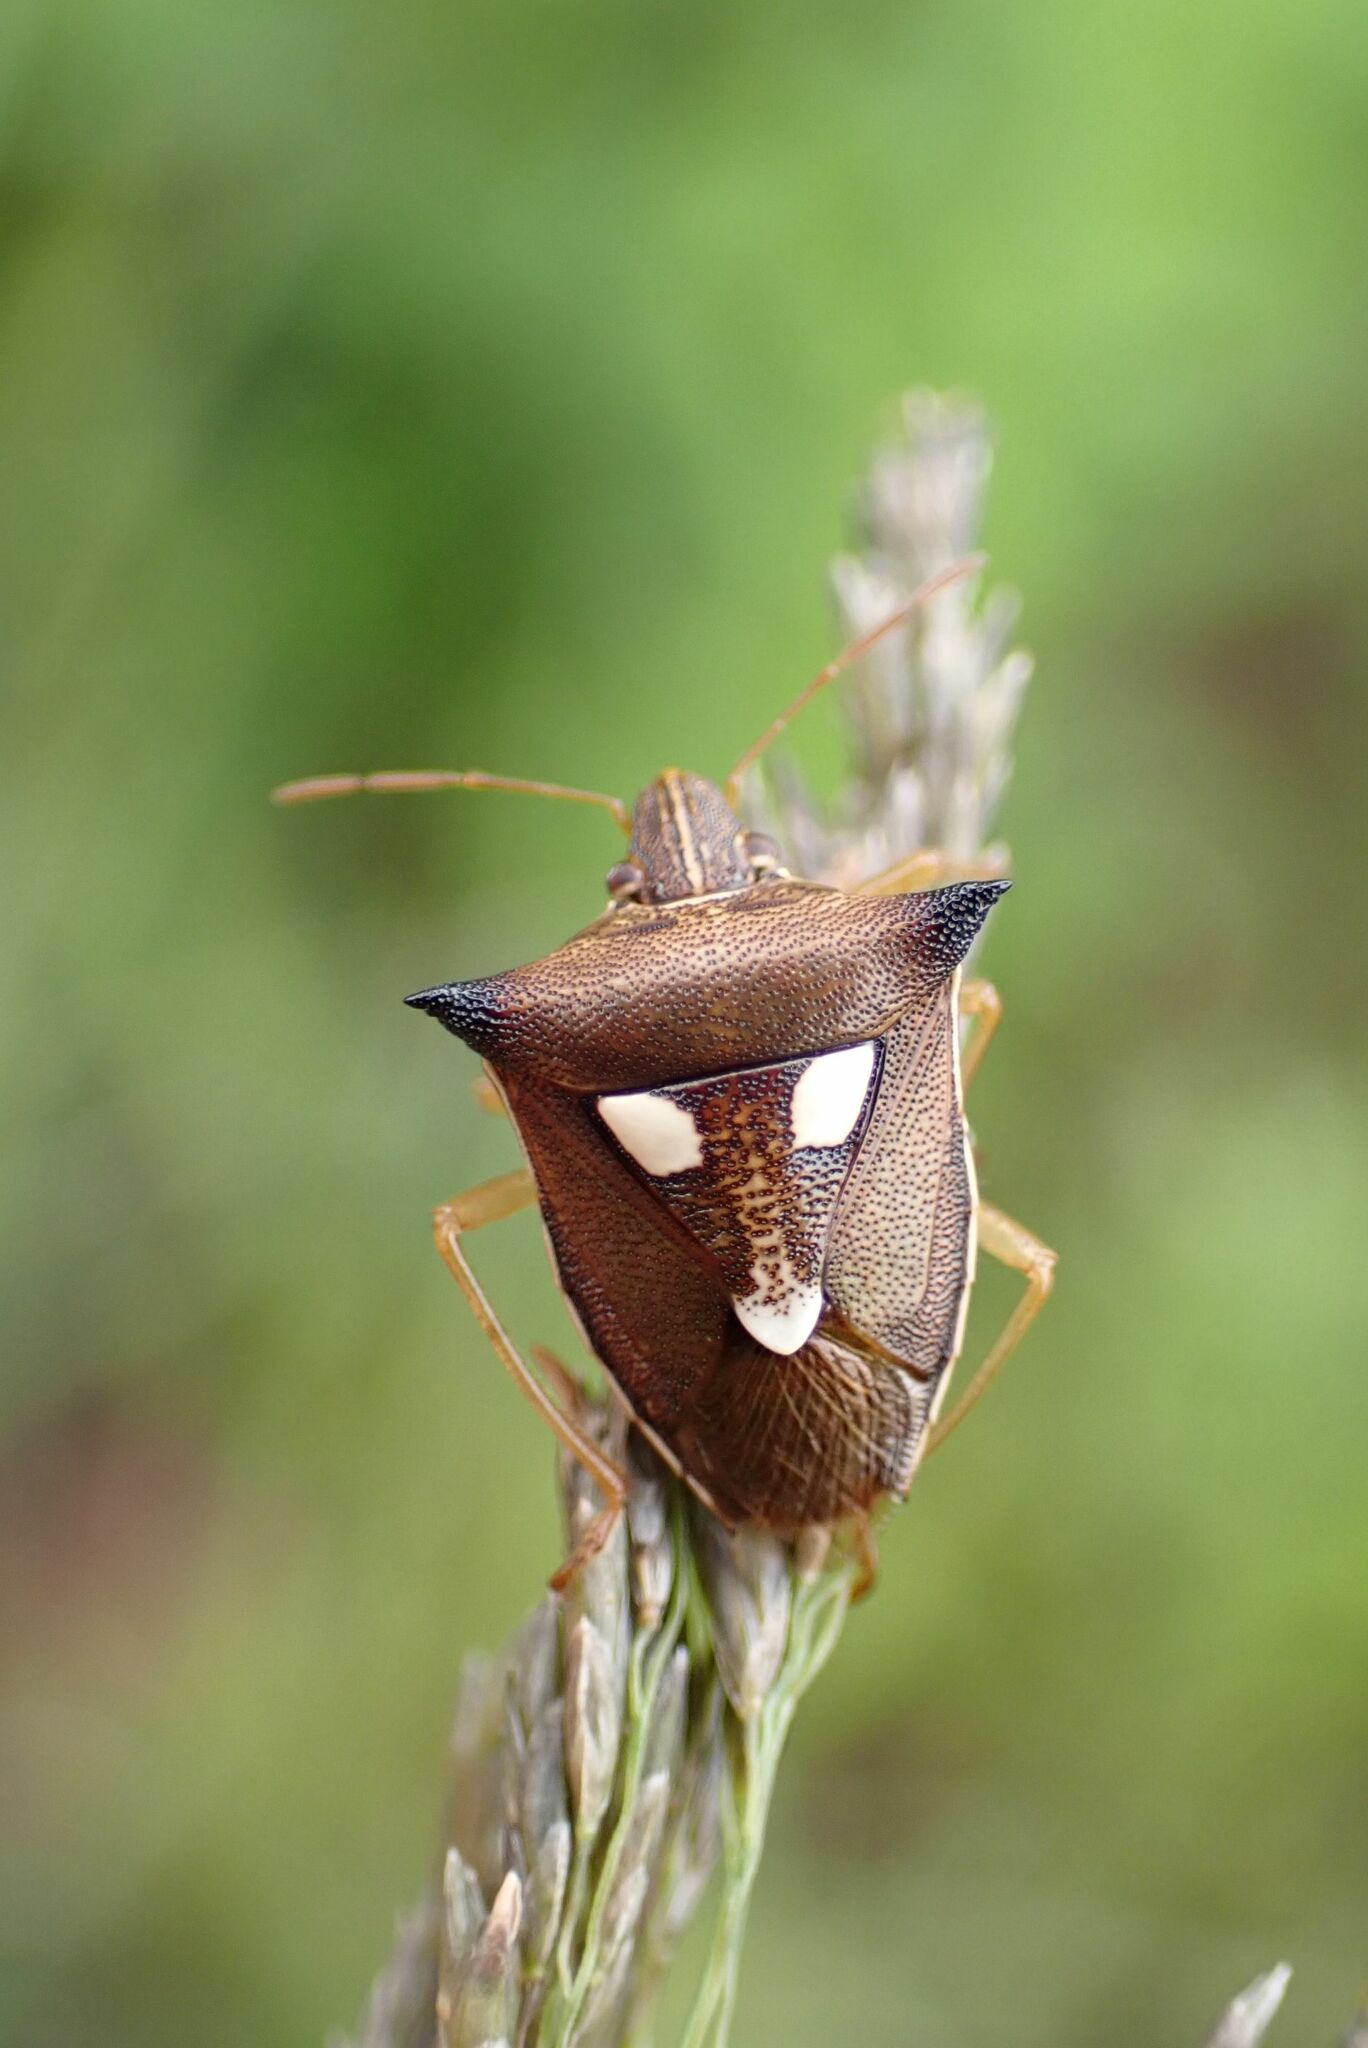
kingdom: Animalia
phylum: Arthropoda
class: Insecta
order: Hemiptera
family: Pentatomidae
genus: Aspavia
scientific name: Aspavia
